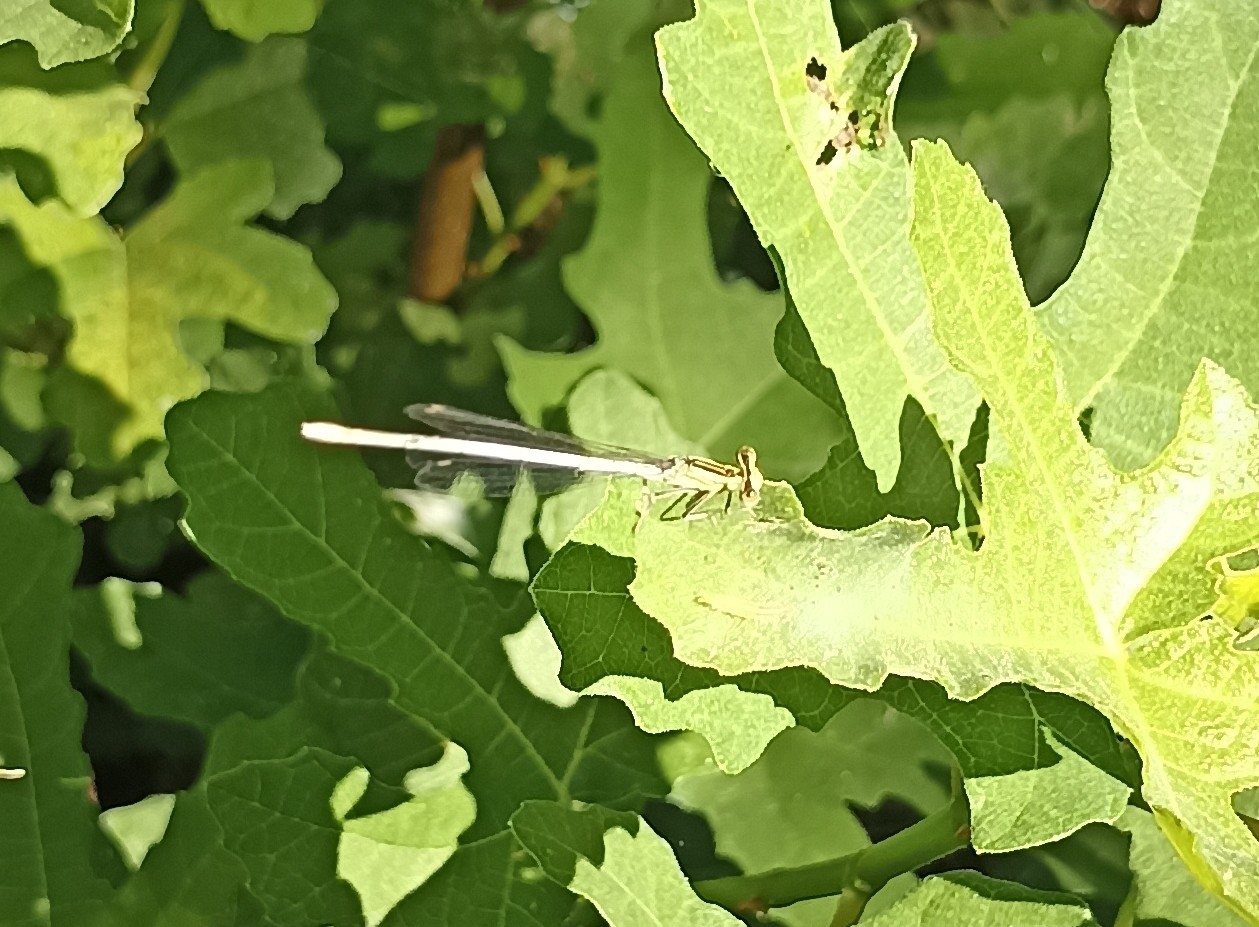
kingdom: Animalia
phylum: Arthropoda
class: Insecta
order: Odonata
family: Platycnemididae
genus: Platycnemis
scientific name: Platycnemis pennipes
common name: White-legged damselfly
